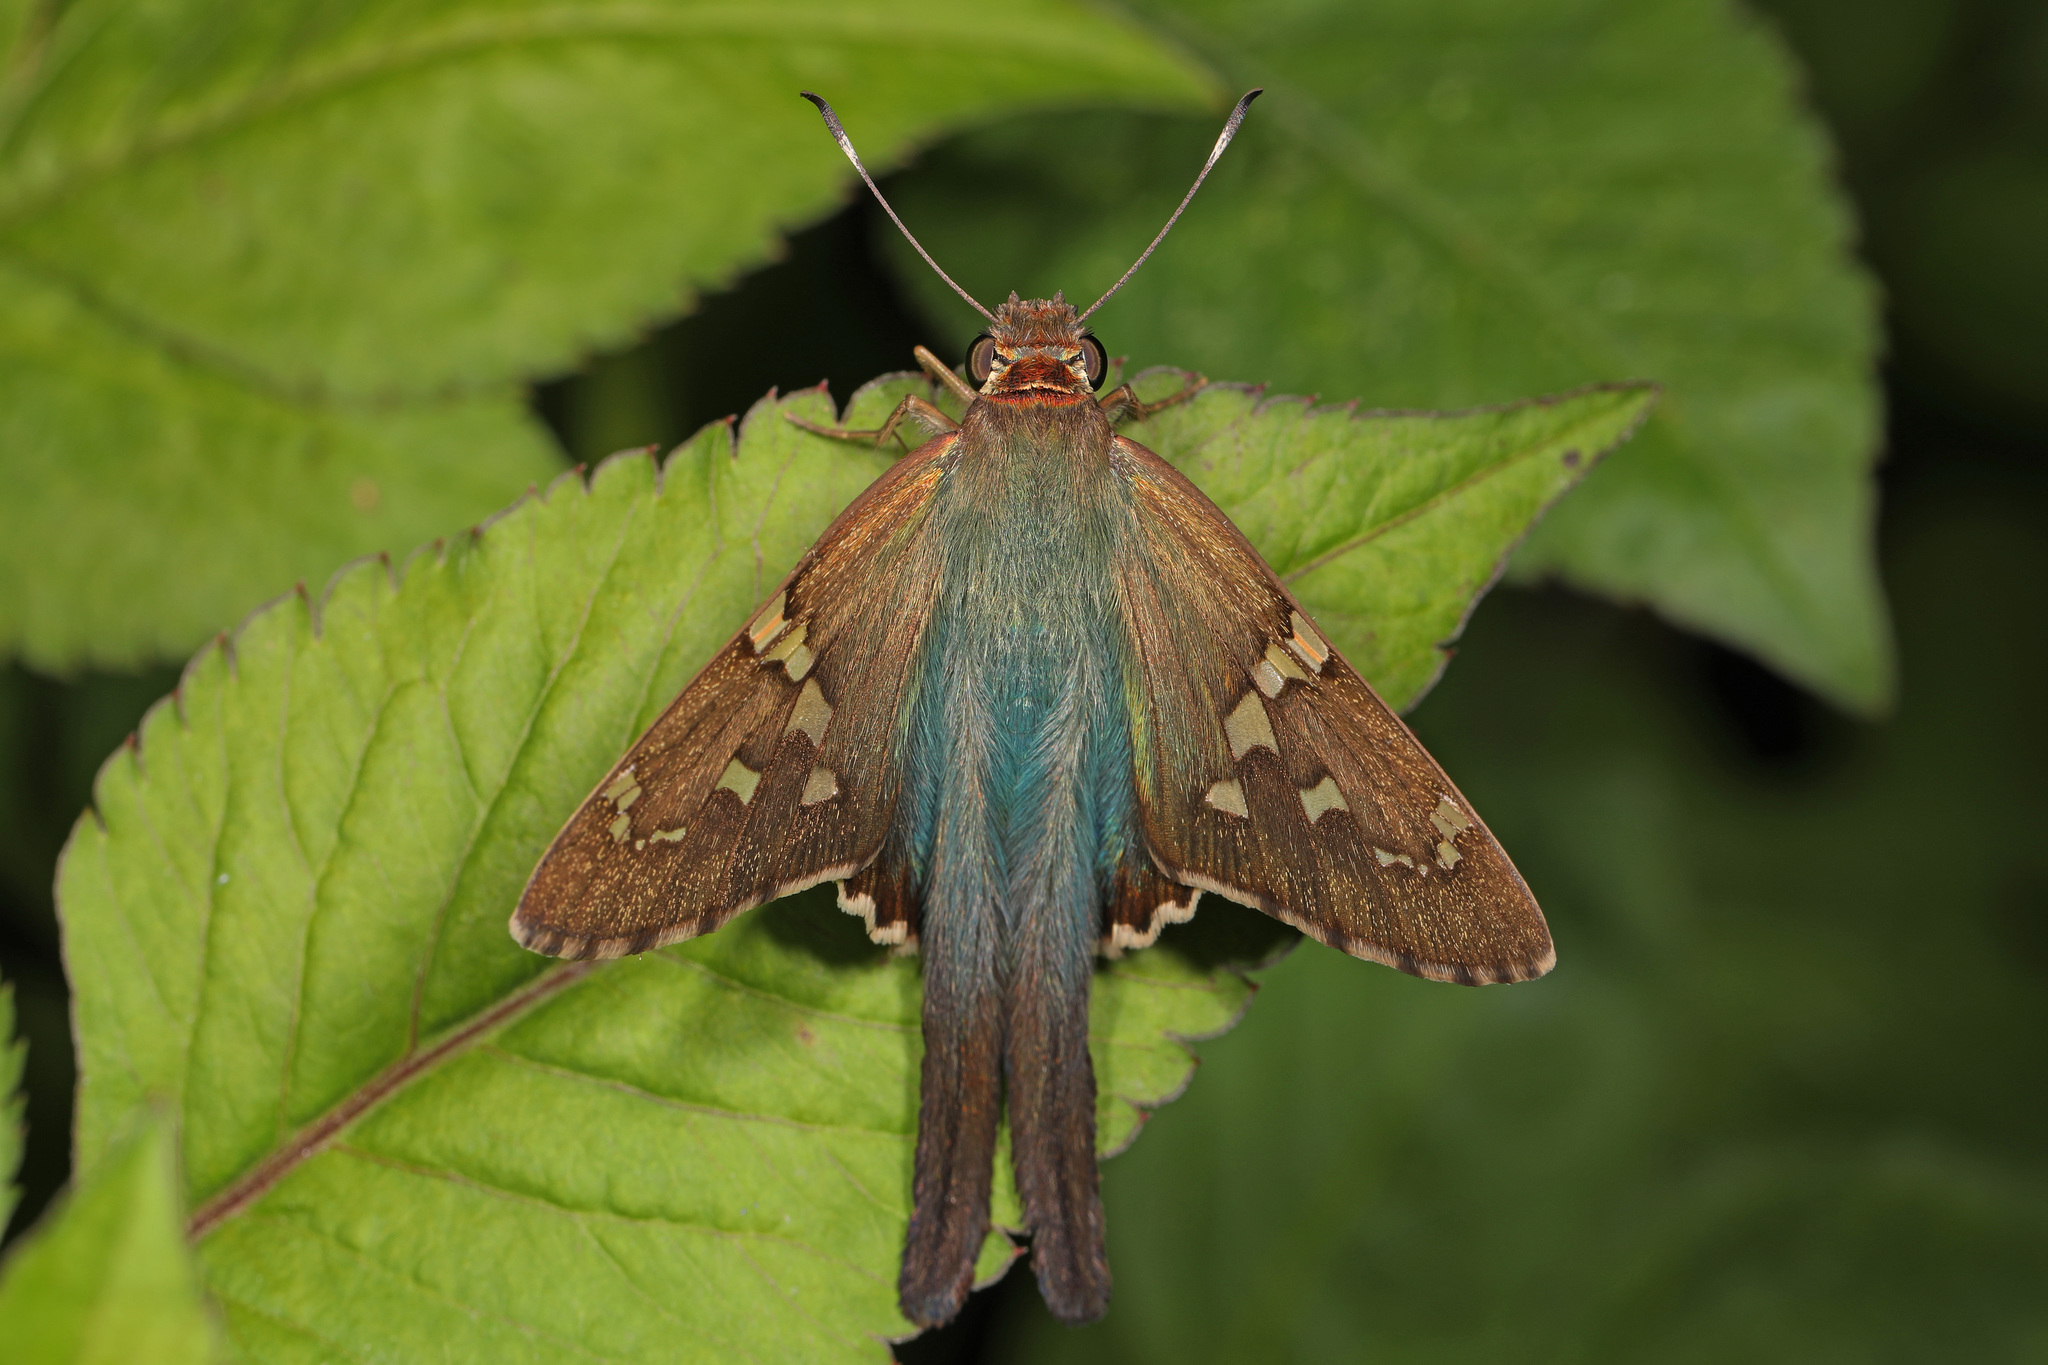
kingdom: Animalia
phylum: Arthropoda
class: Insecta
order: Lepidoptera
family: Hesperiidae
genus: Urbanus
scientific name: Urbanus proteus
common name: Long-tailed skipper
